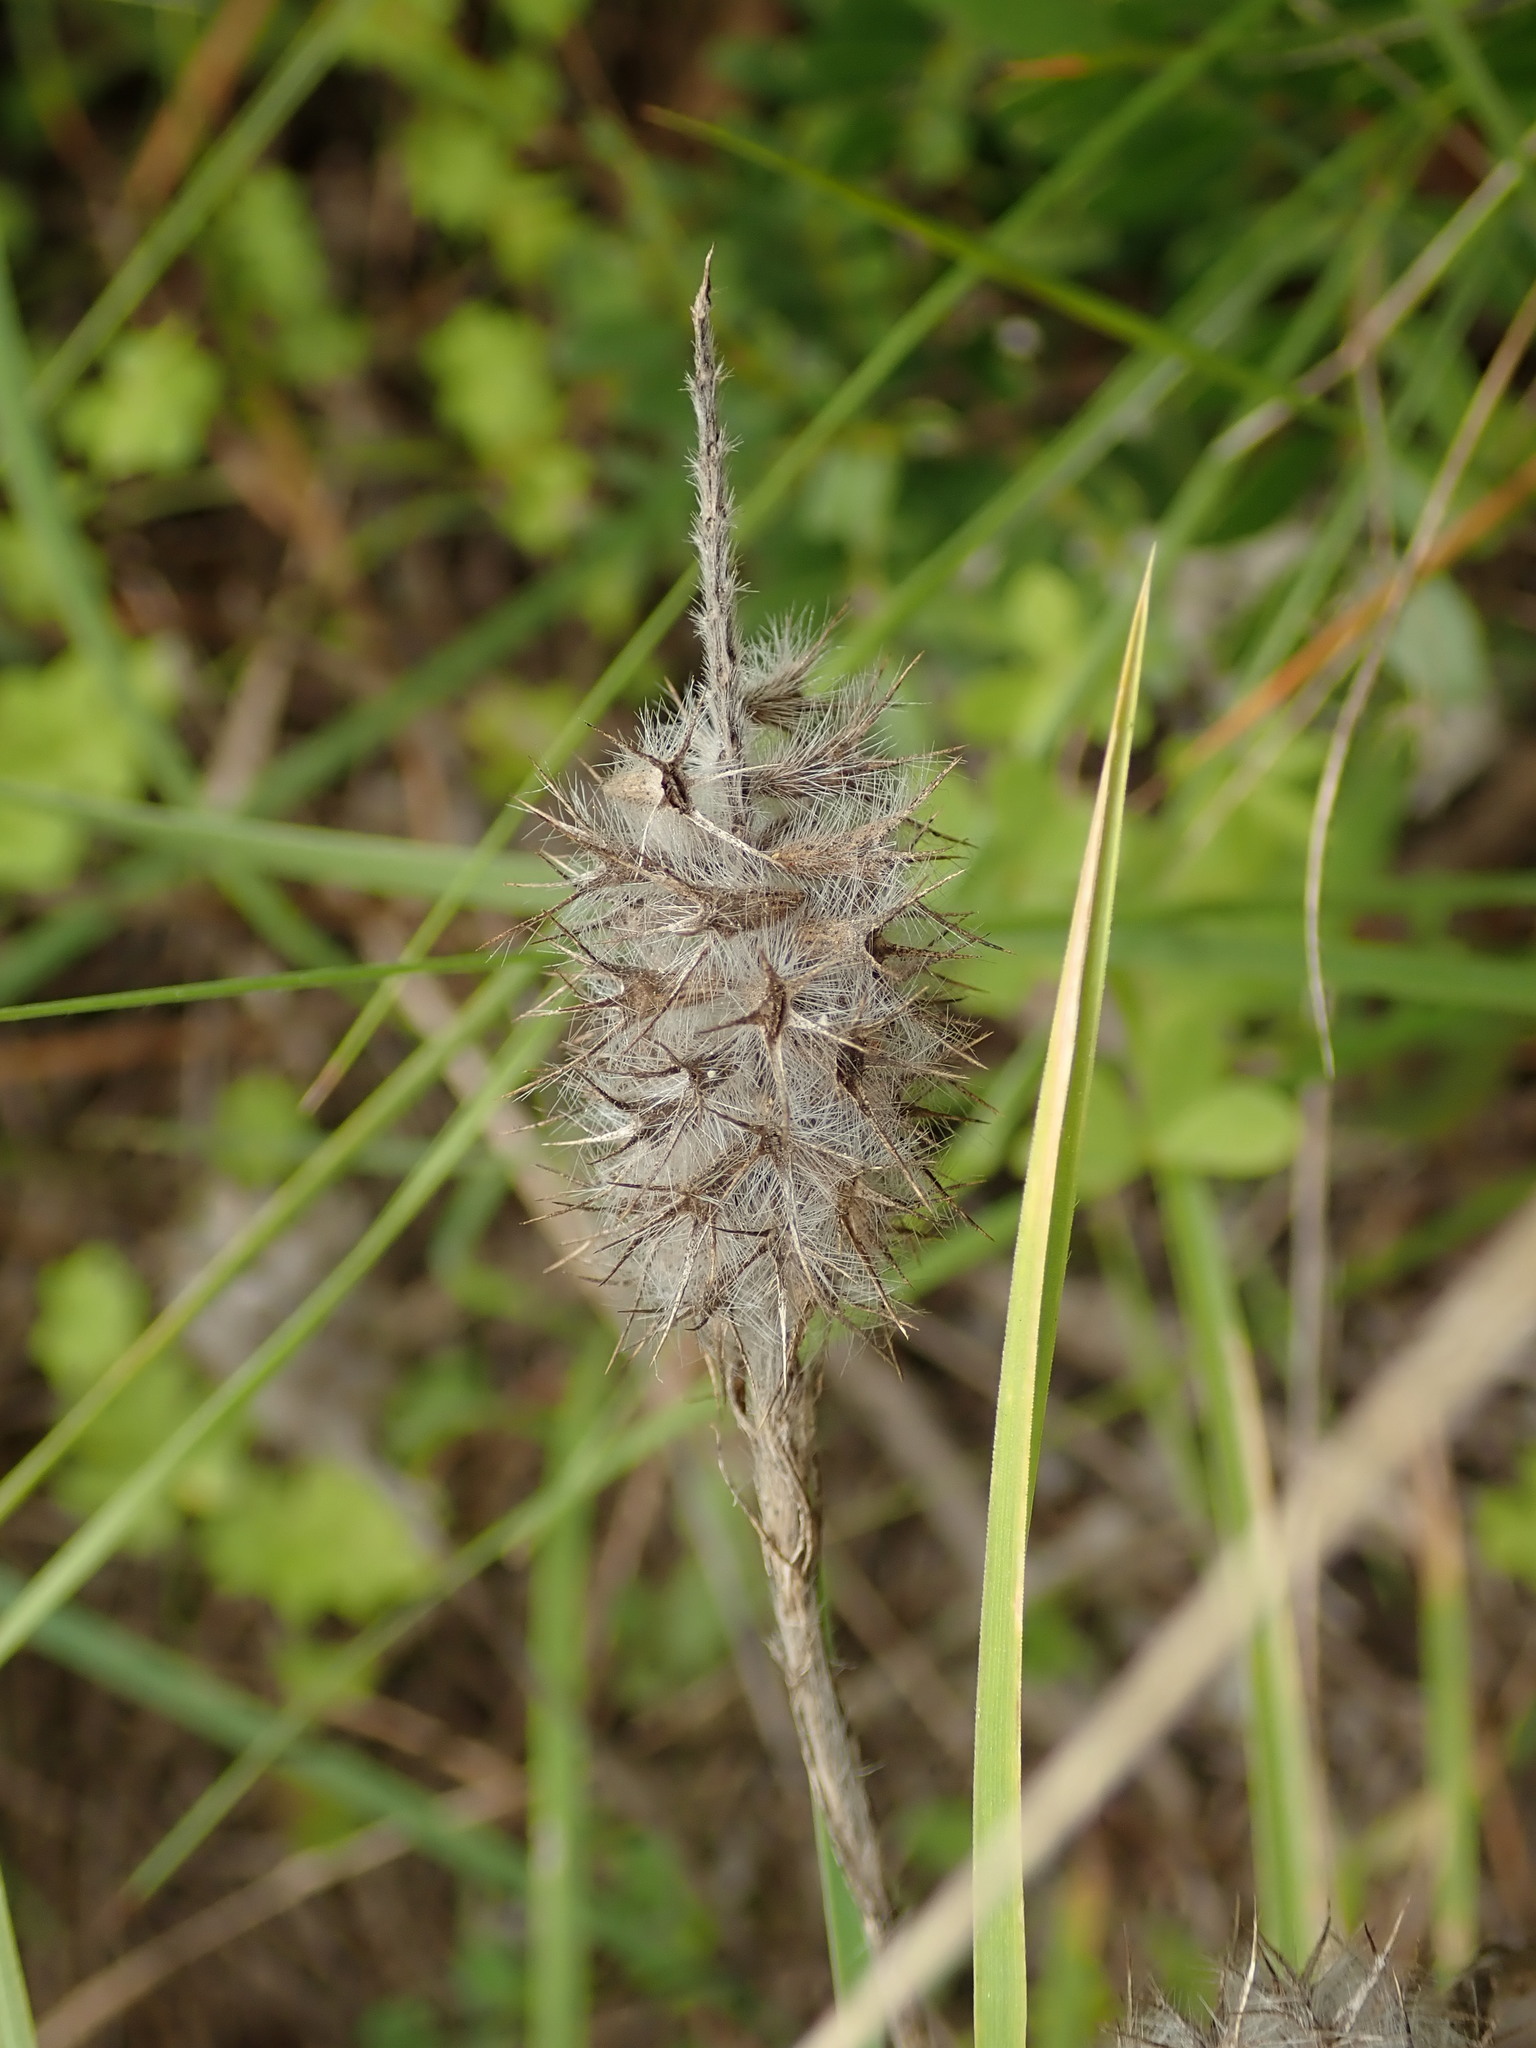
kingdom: Plantae
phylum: Tracheophyta
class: Magnoliopsida
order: Fabales
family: Fabaceae
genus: Trifolium
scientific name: Trifolium angustifolium
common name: Narrow clover
